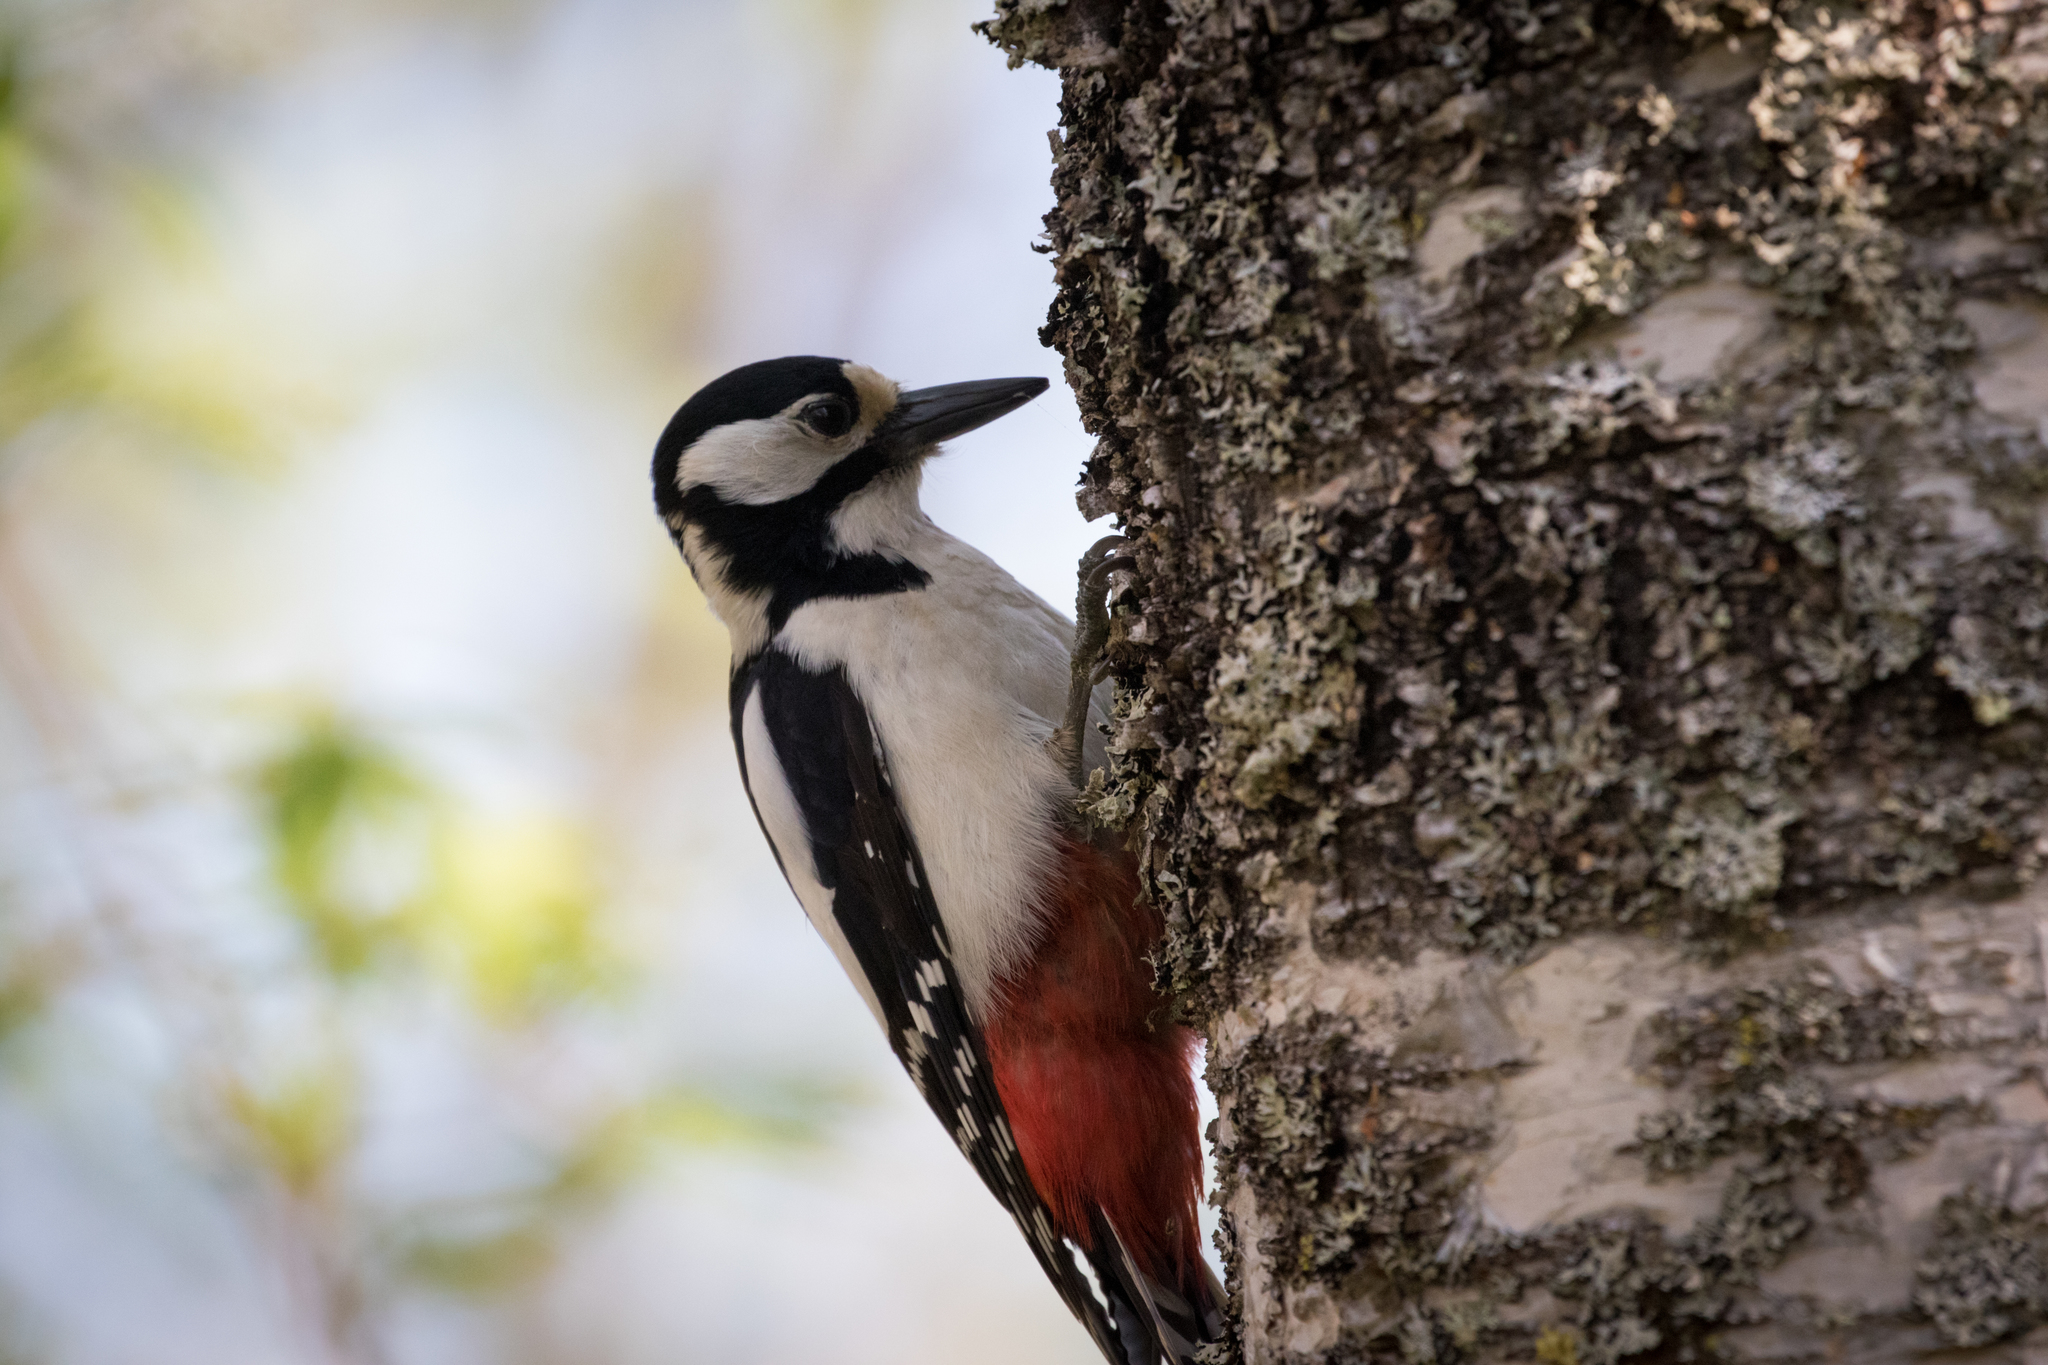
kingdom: Animalia
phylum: Chordata
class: Aves
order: Piciformes
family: Picidae
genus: Dendrocopos
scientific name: Dendrocopos major
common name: Great spotted woodpecker
